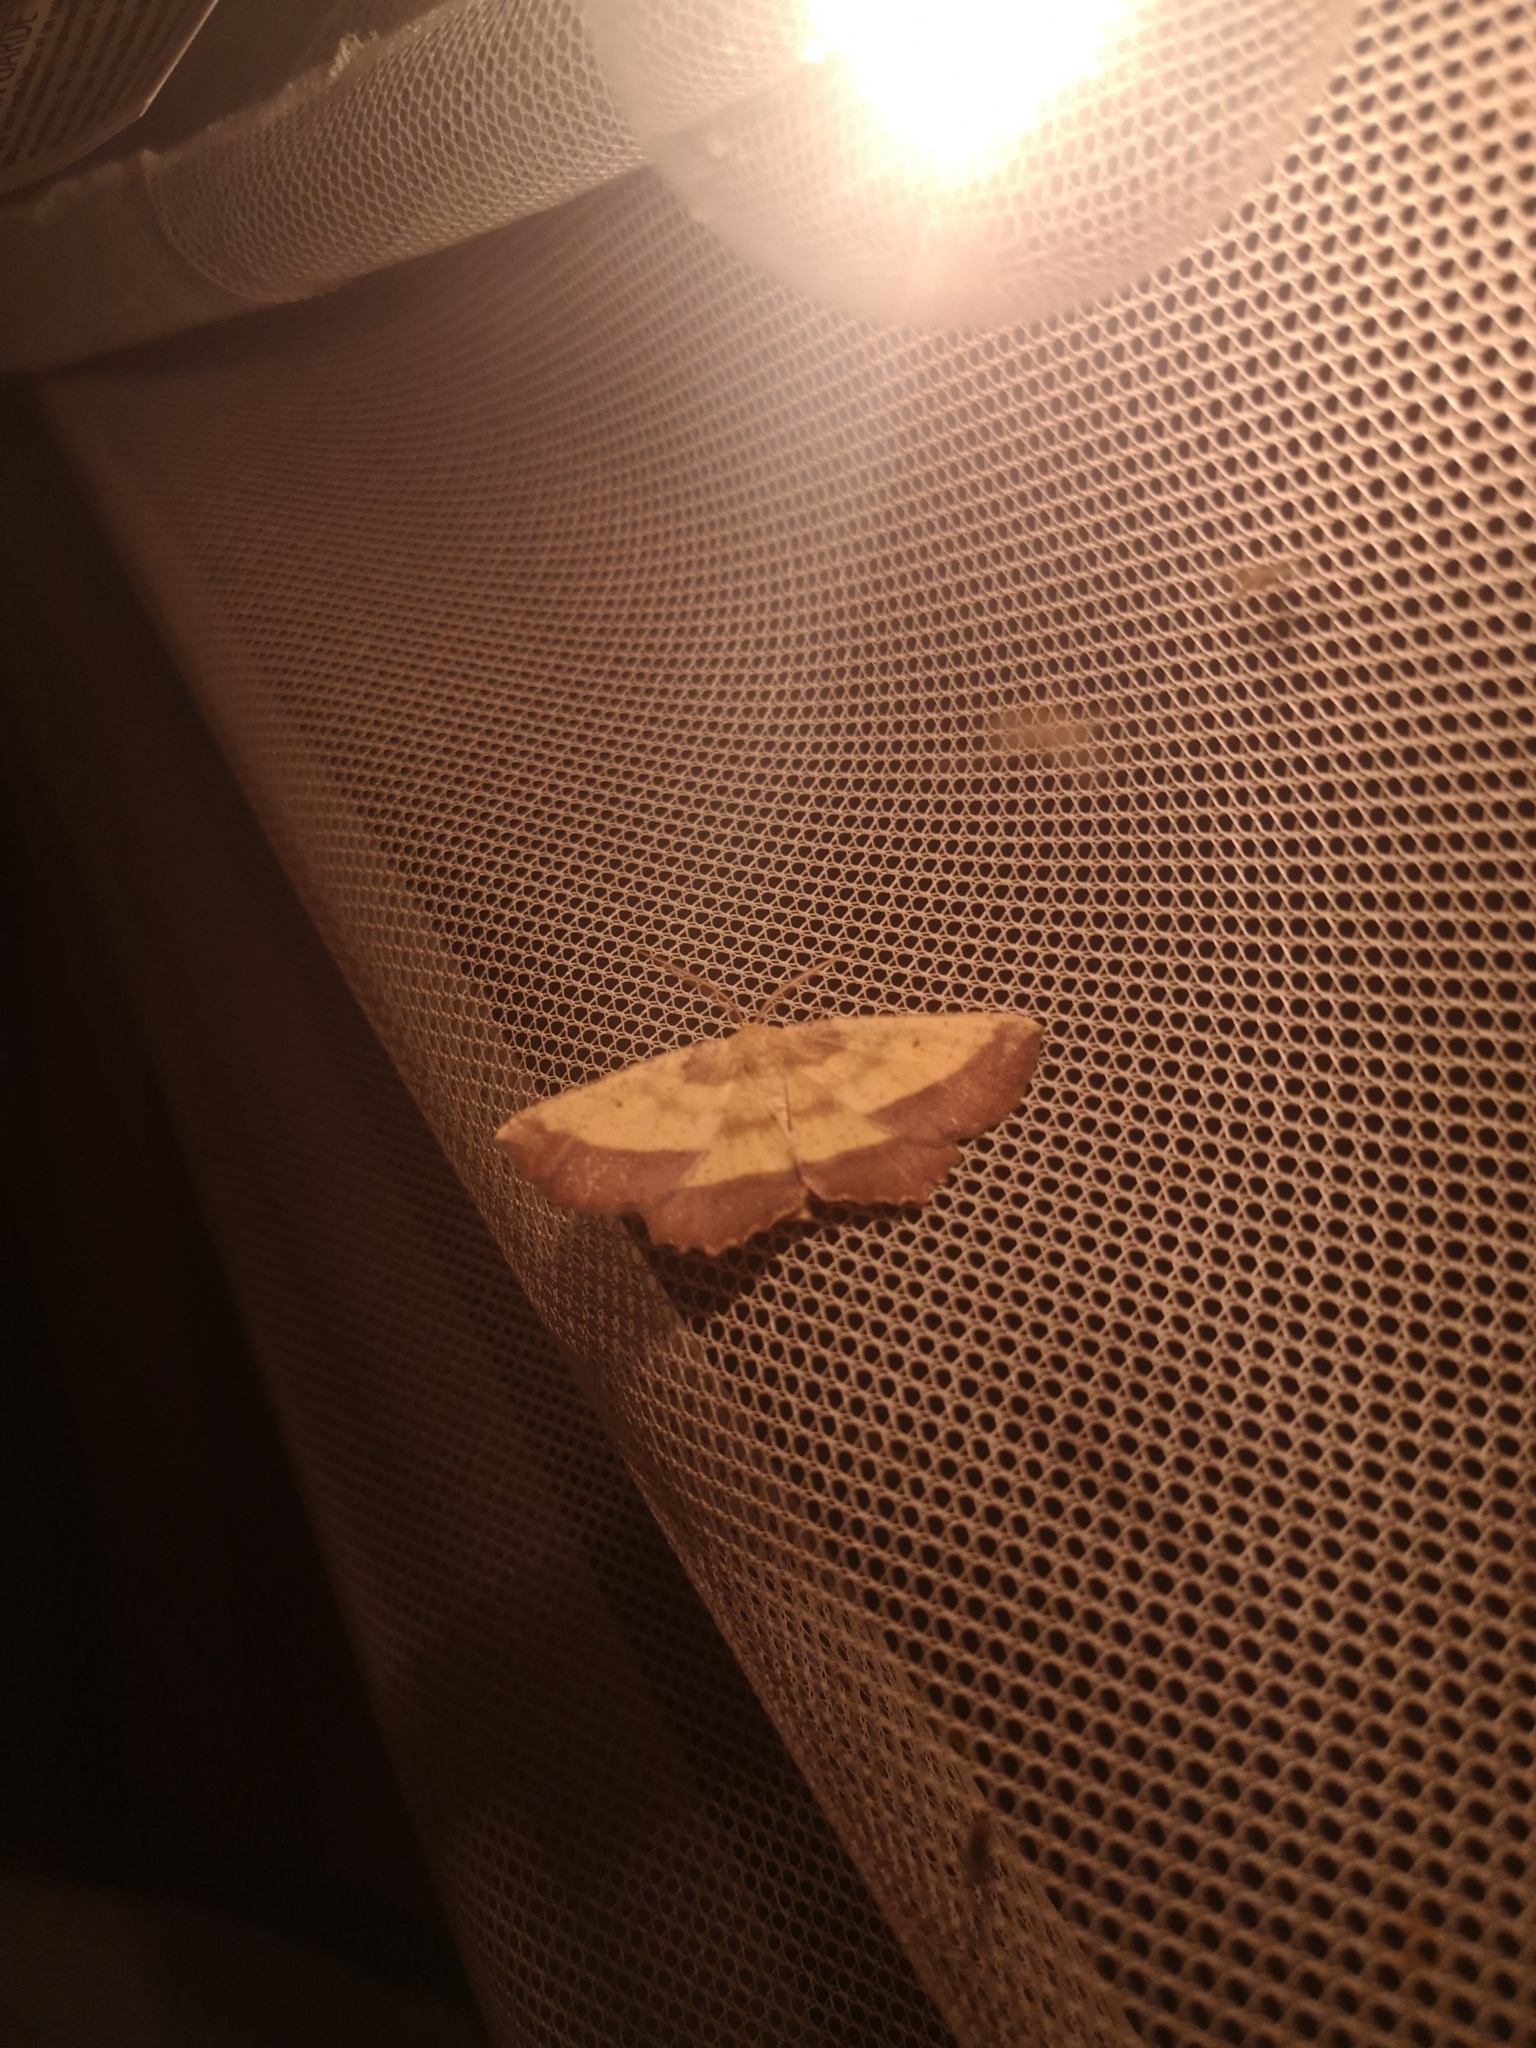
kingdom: Animalia
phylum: Arthropoda
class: Insecta
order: Lepidoptera
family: Geometridae
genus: Euchlaena
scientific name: Euchlaena serrata
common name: Saw wing
